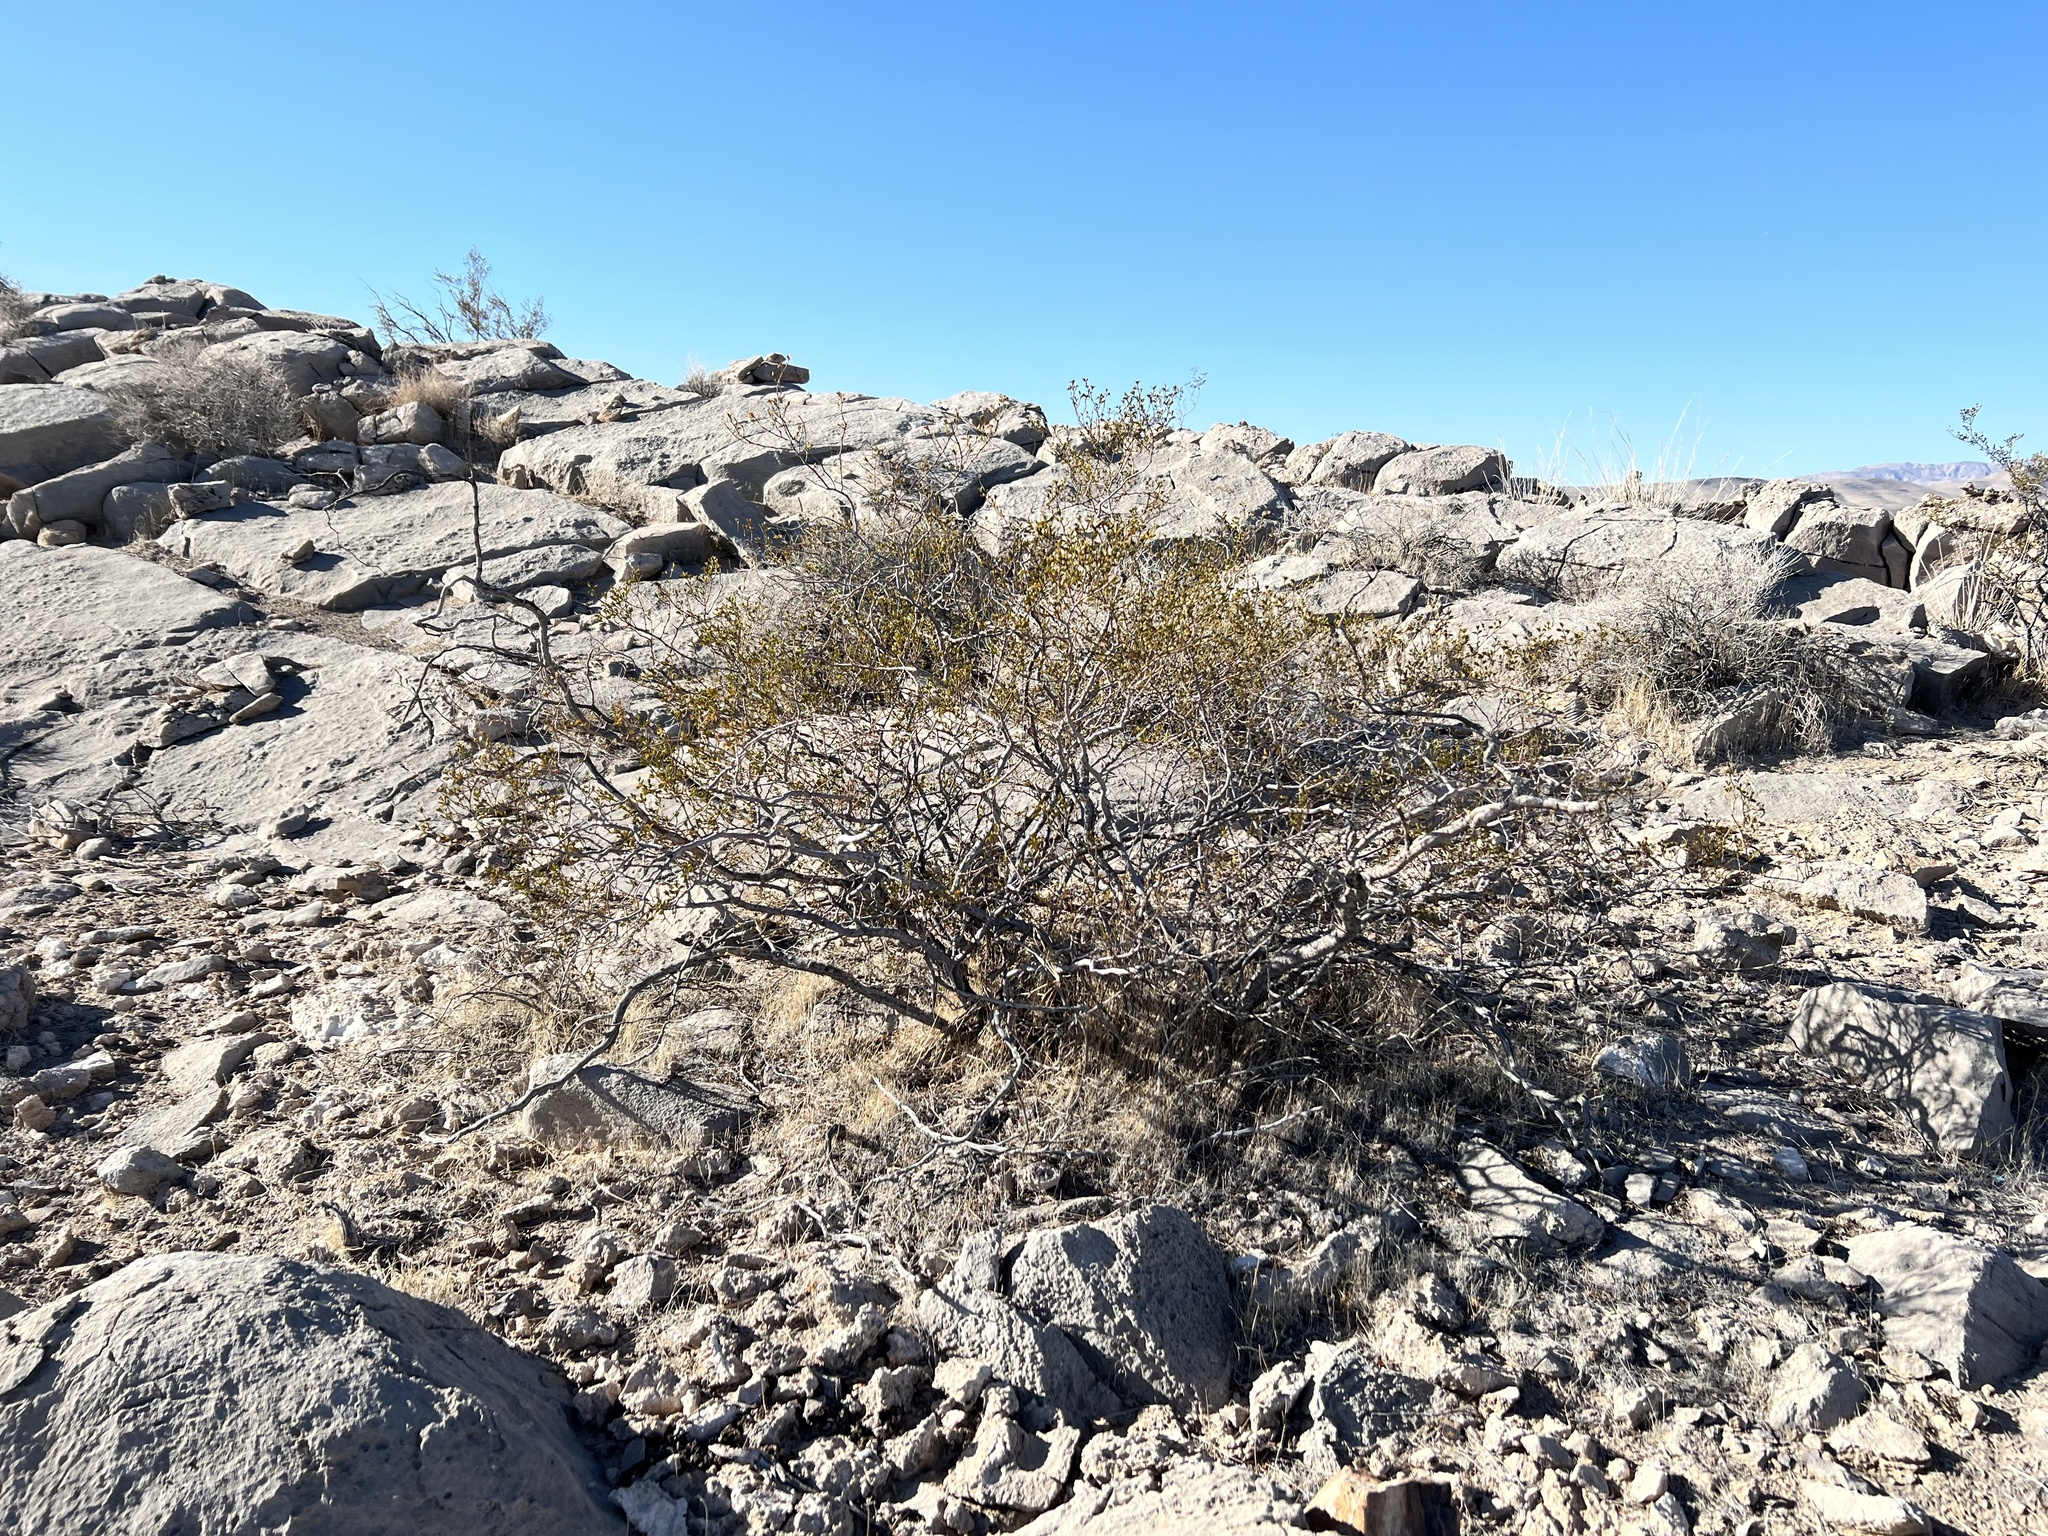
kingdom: Plantae
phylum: Tracheophyta
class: Magnoliopsida
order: Zygophyllales
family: Zygophyllaceae
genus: Larrea
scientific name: Larrea tridentata
